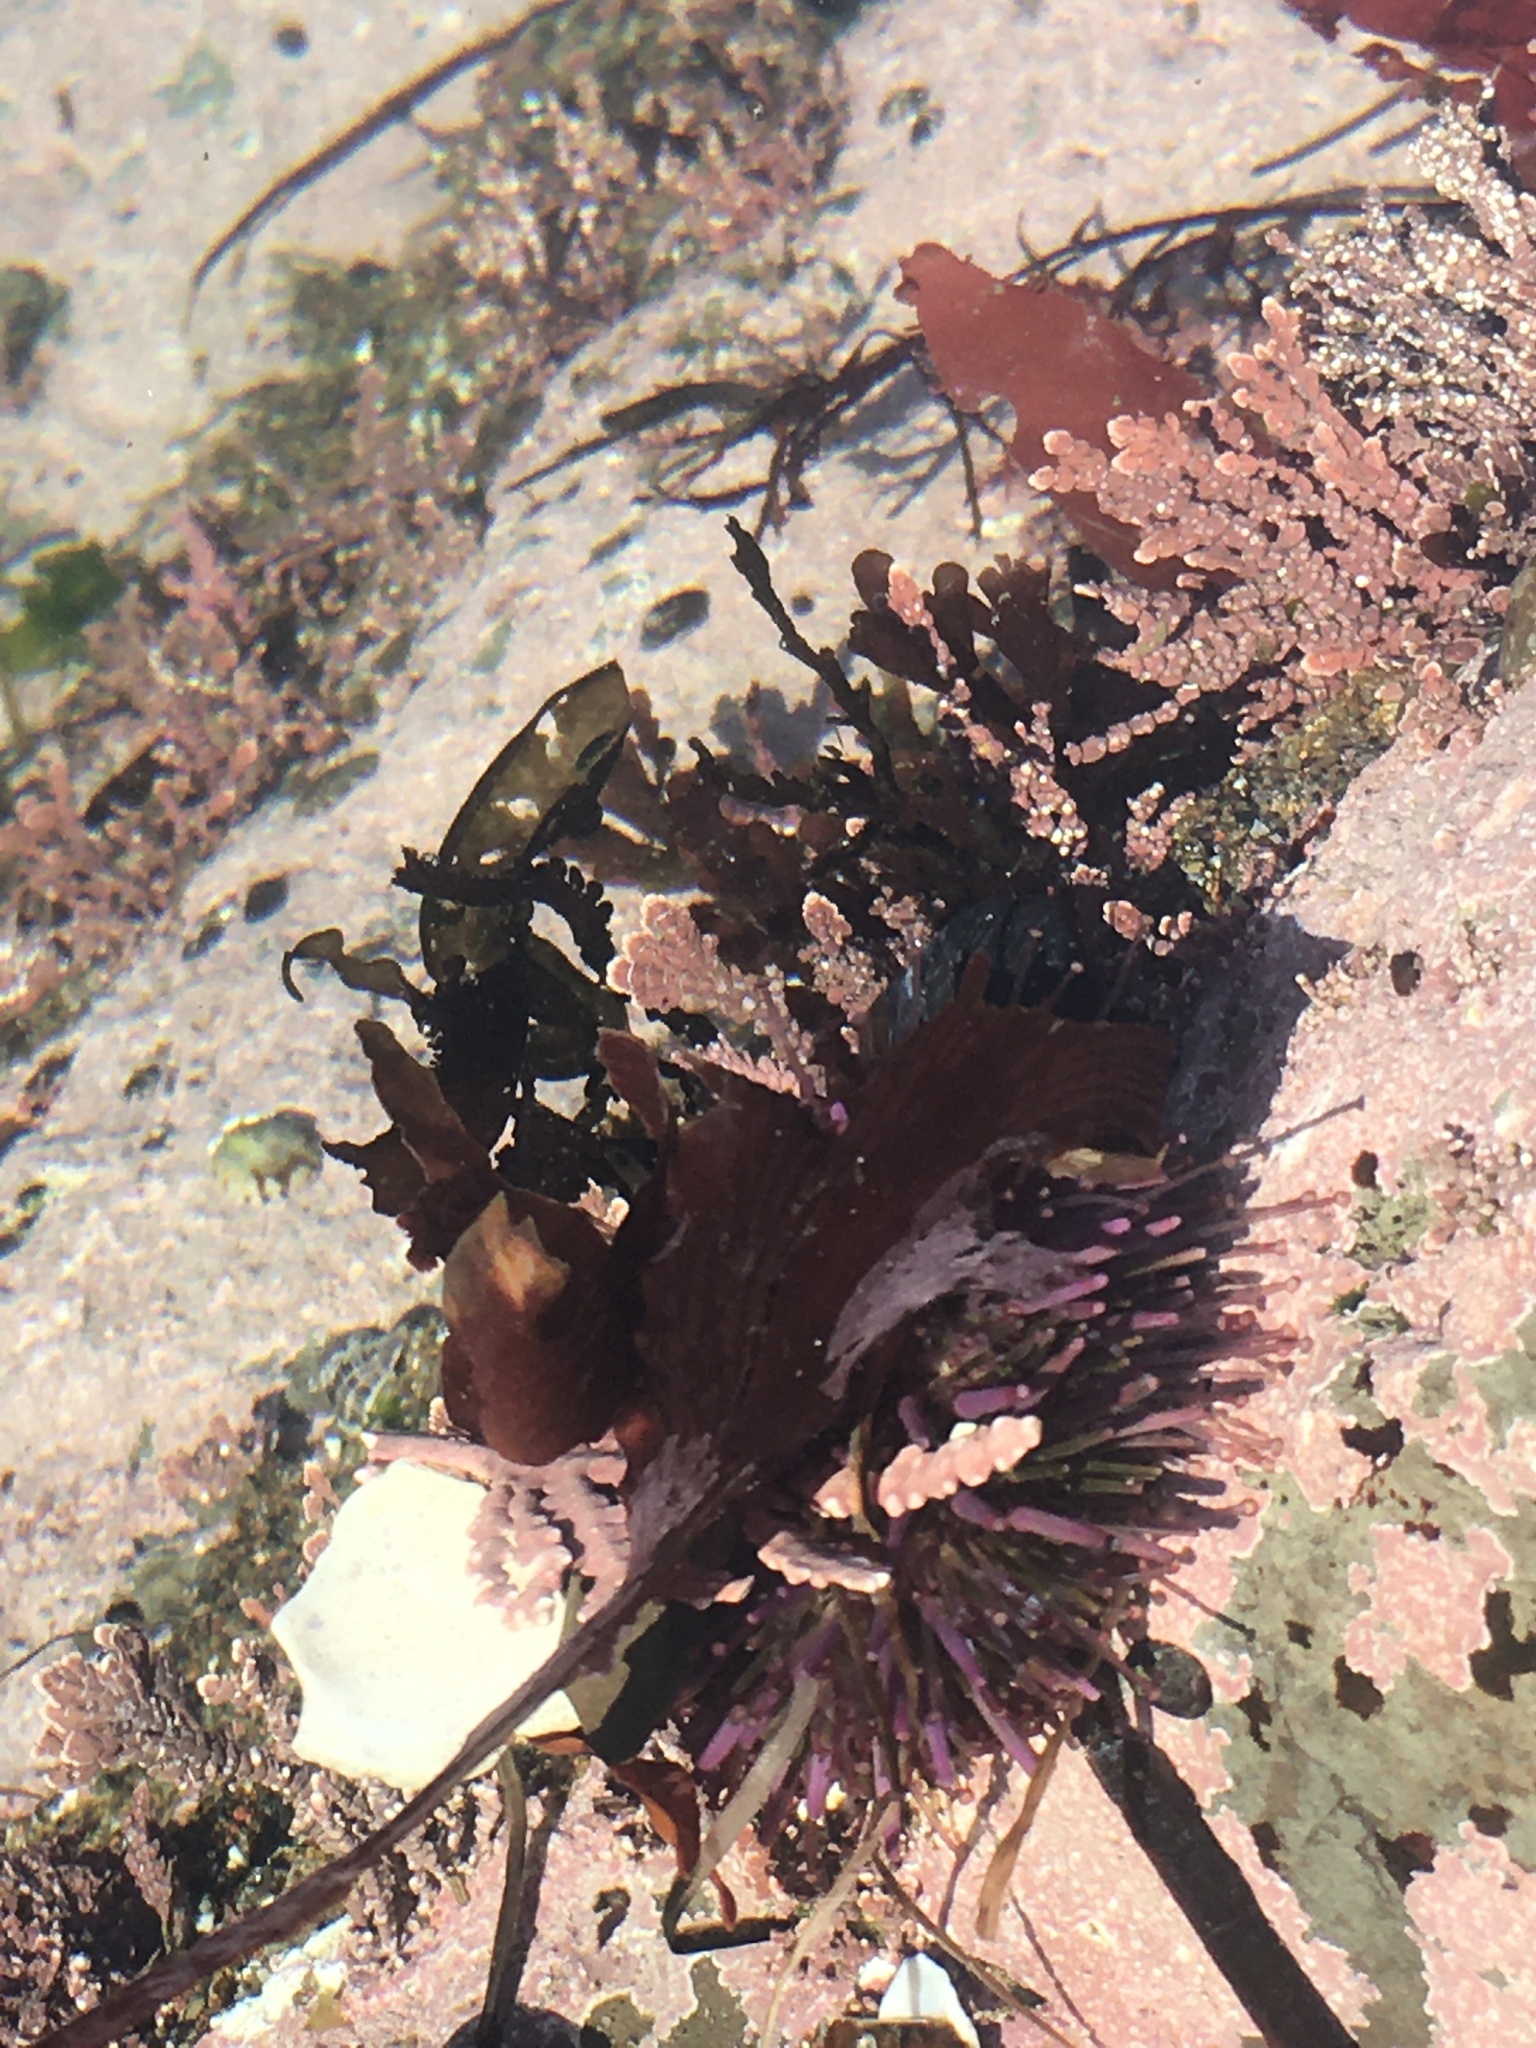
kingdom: Animalia
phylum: Echinodermata
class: Echinoidea
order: Camarodonta
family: Strongylocentrotidae
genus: Strongylocentrotus
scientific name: Strongylocentrotus purpuratus
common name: Purple sea urchin
